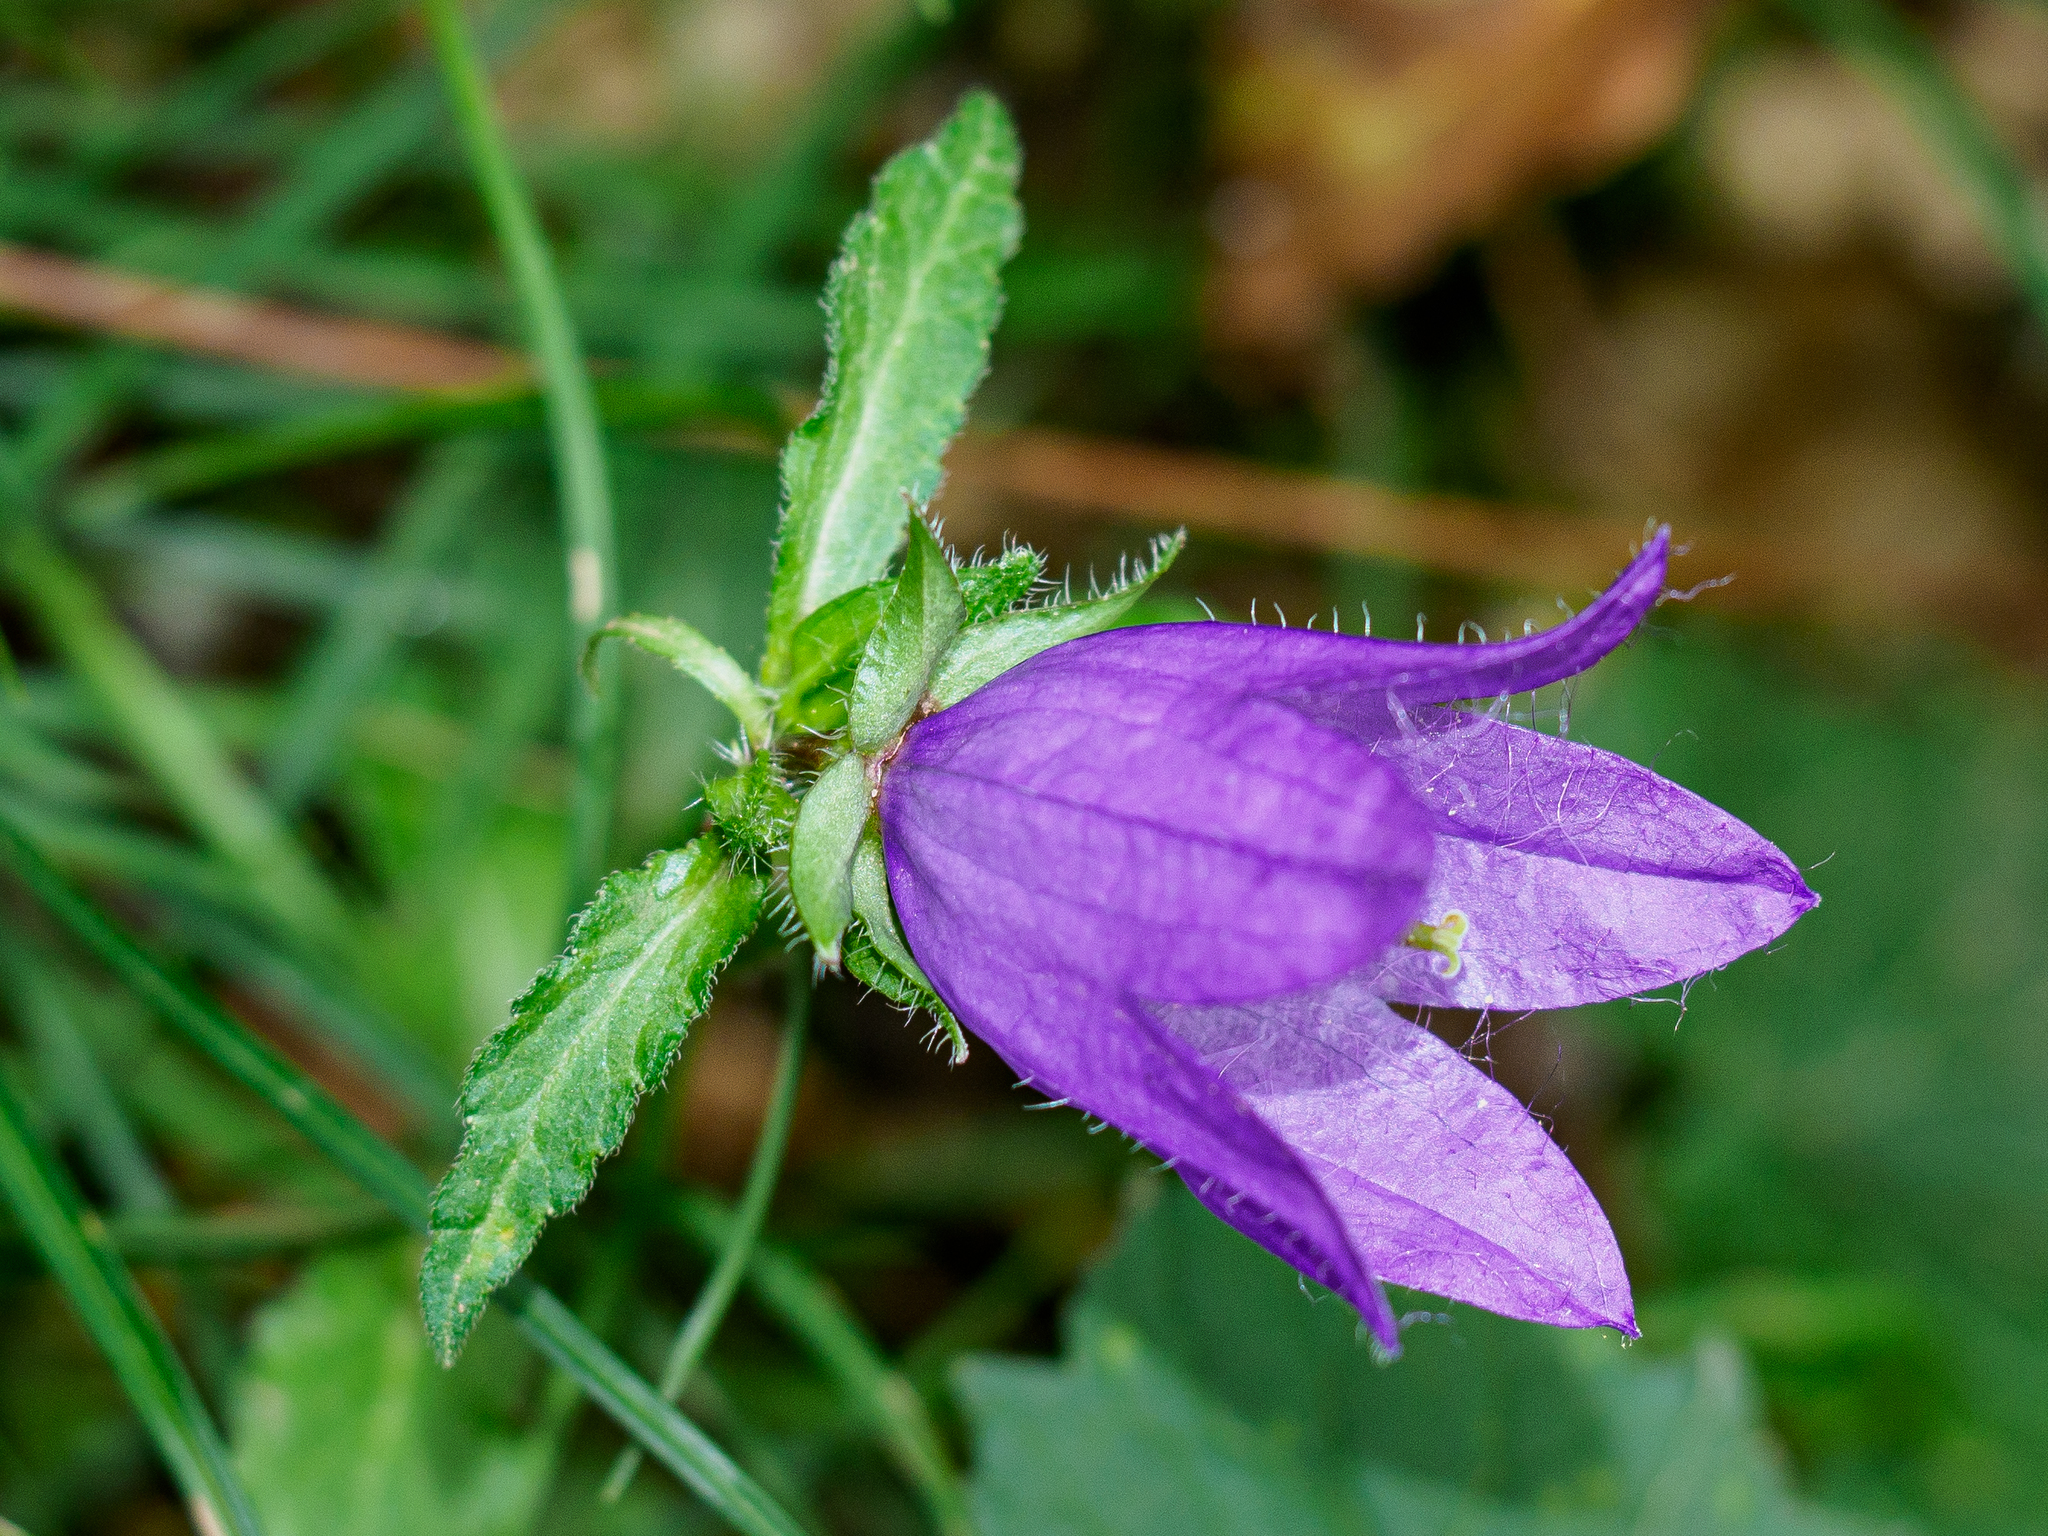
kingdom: Plantae
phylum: Tracheophyta
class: Magnoliopsida
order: Asterales
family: Campanulaceae
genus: Campanula
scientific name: Campanula trachelium
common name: Nettle-leaved bellflower
